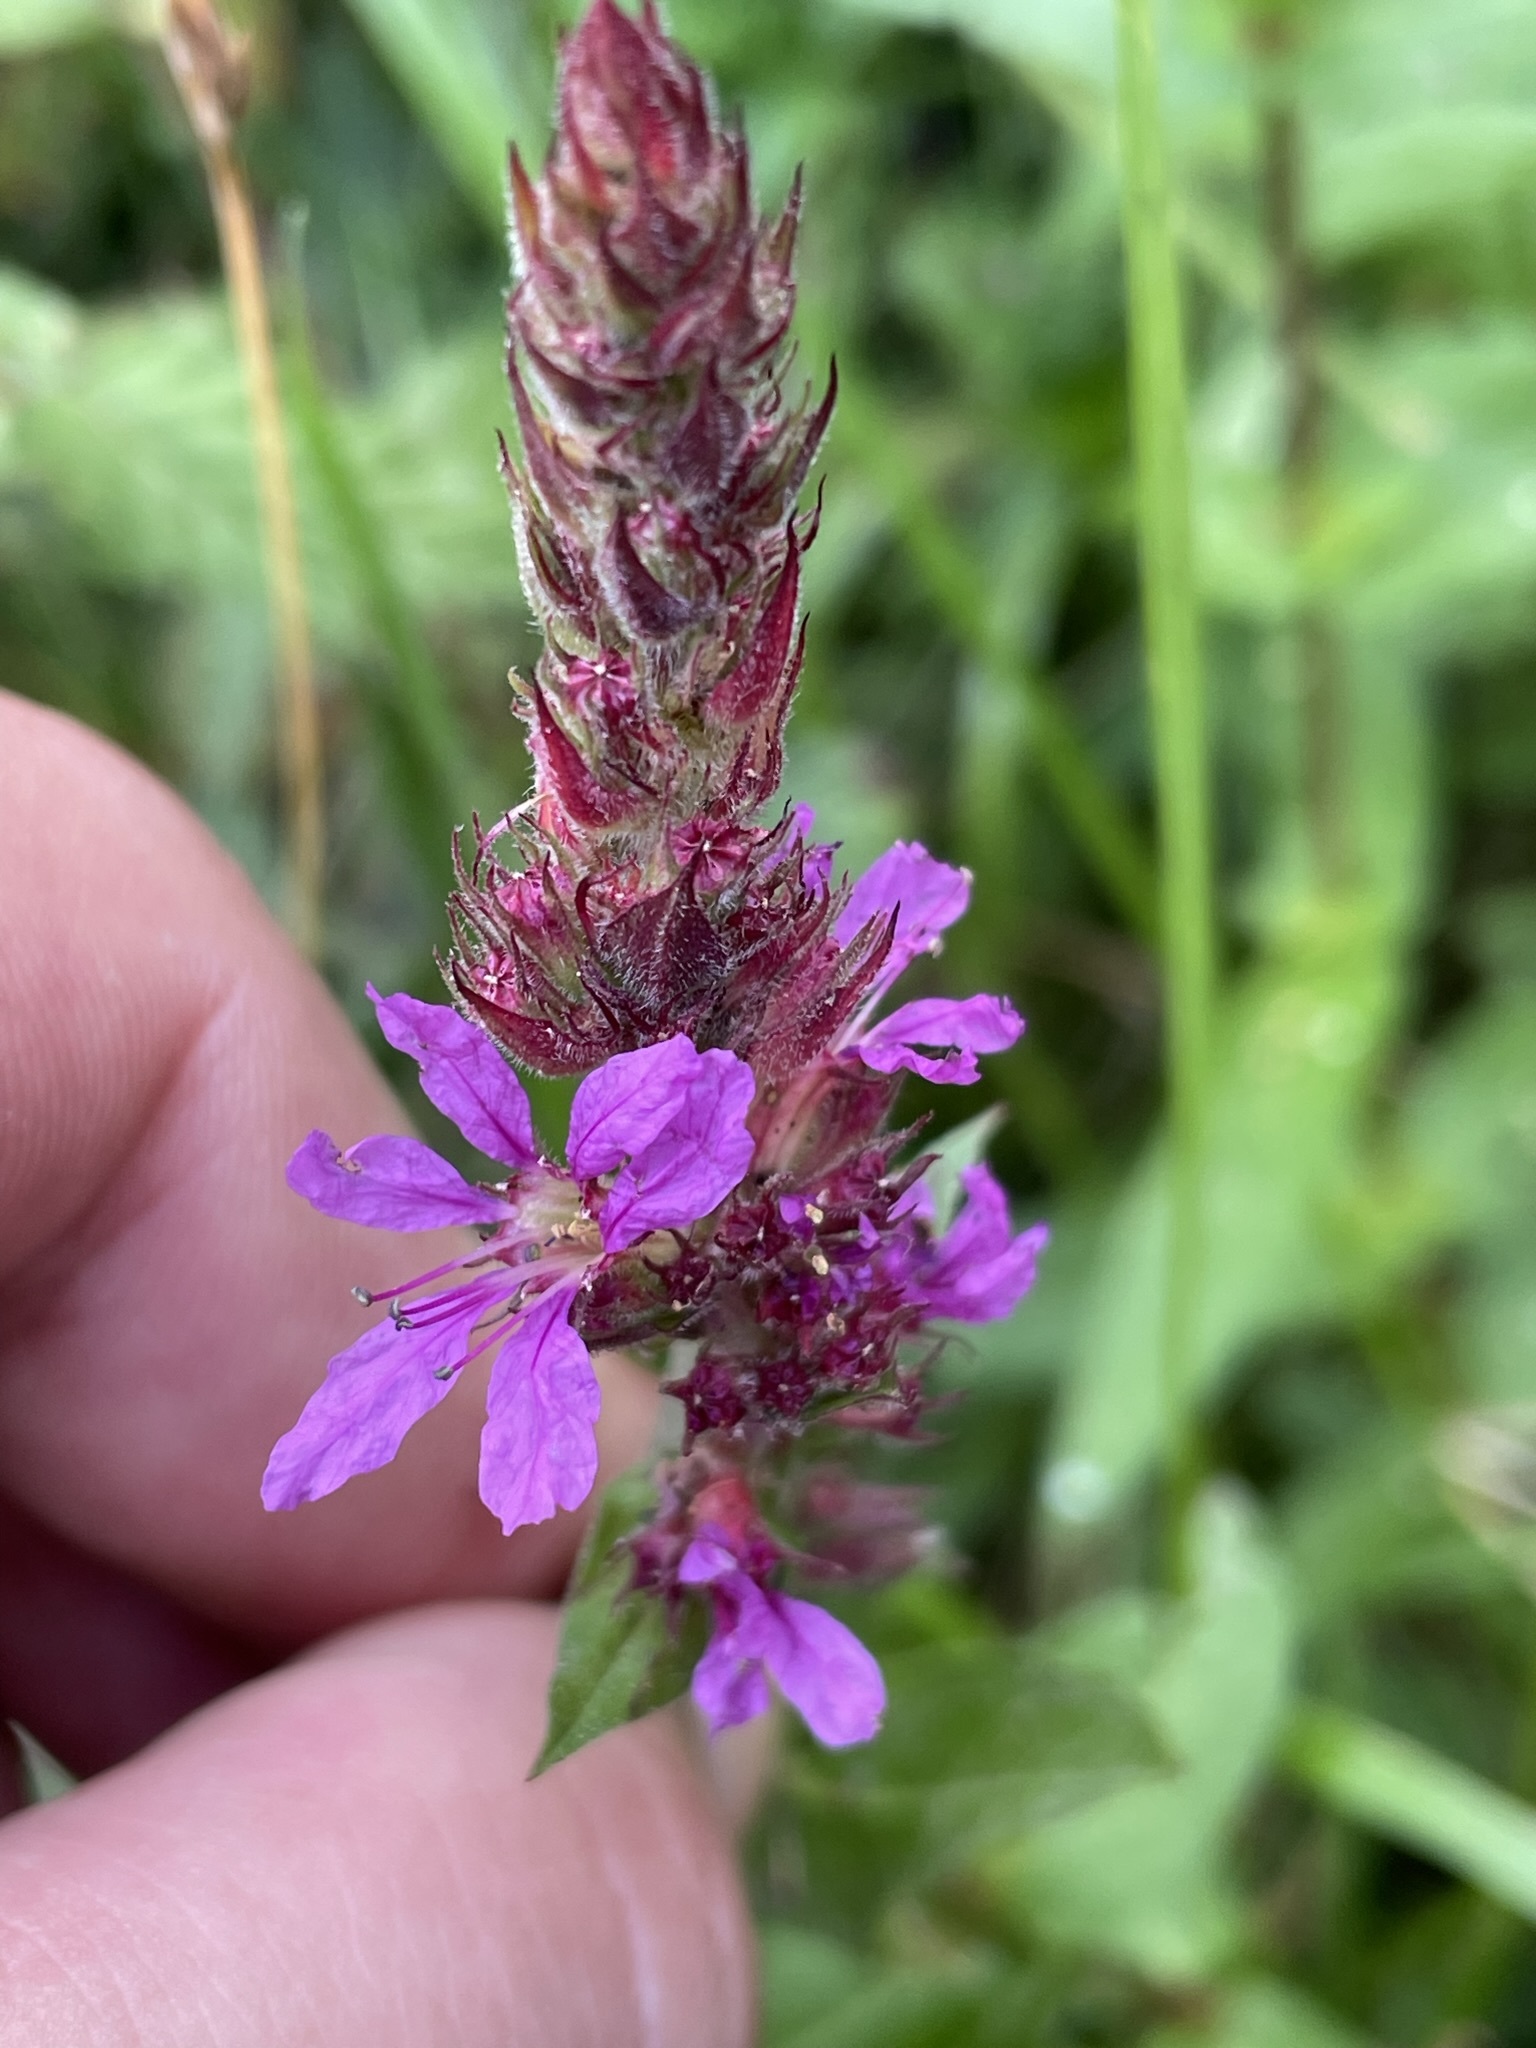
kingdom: Plantae
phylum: Tracheophyta
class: Magnoliopsida
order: Myrtales
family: Lythraceae
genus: Lythrum
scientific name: Lythrum salicaria
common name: Purple loosestrife
